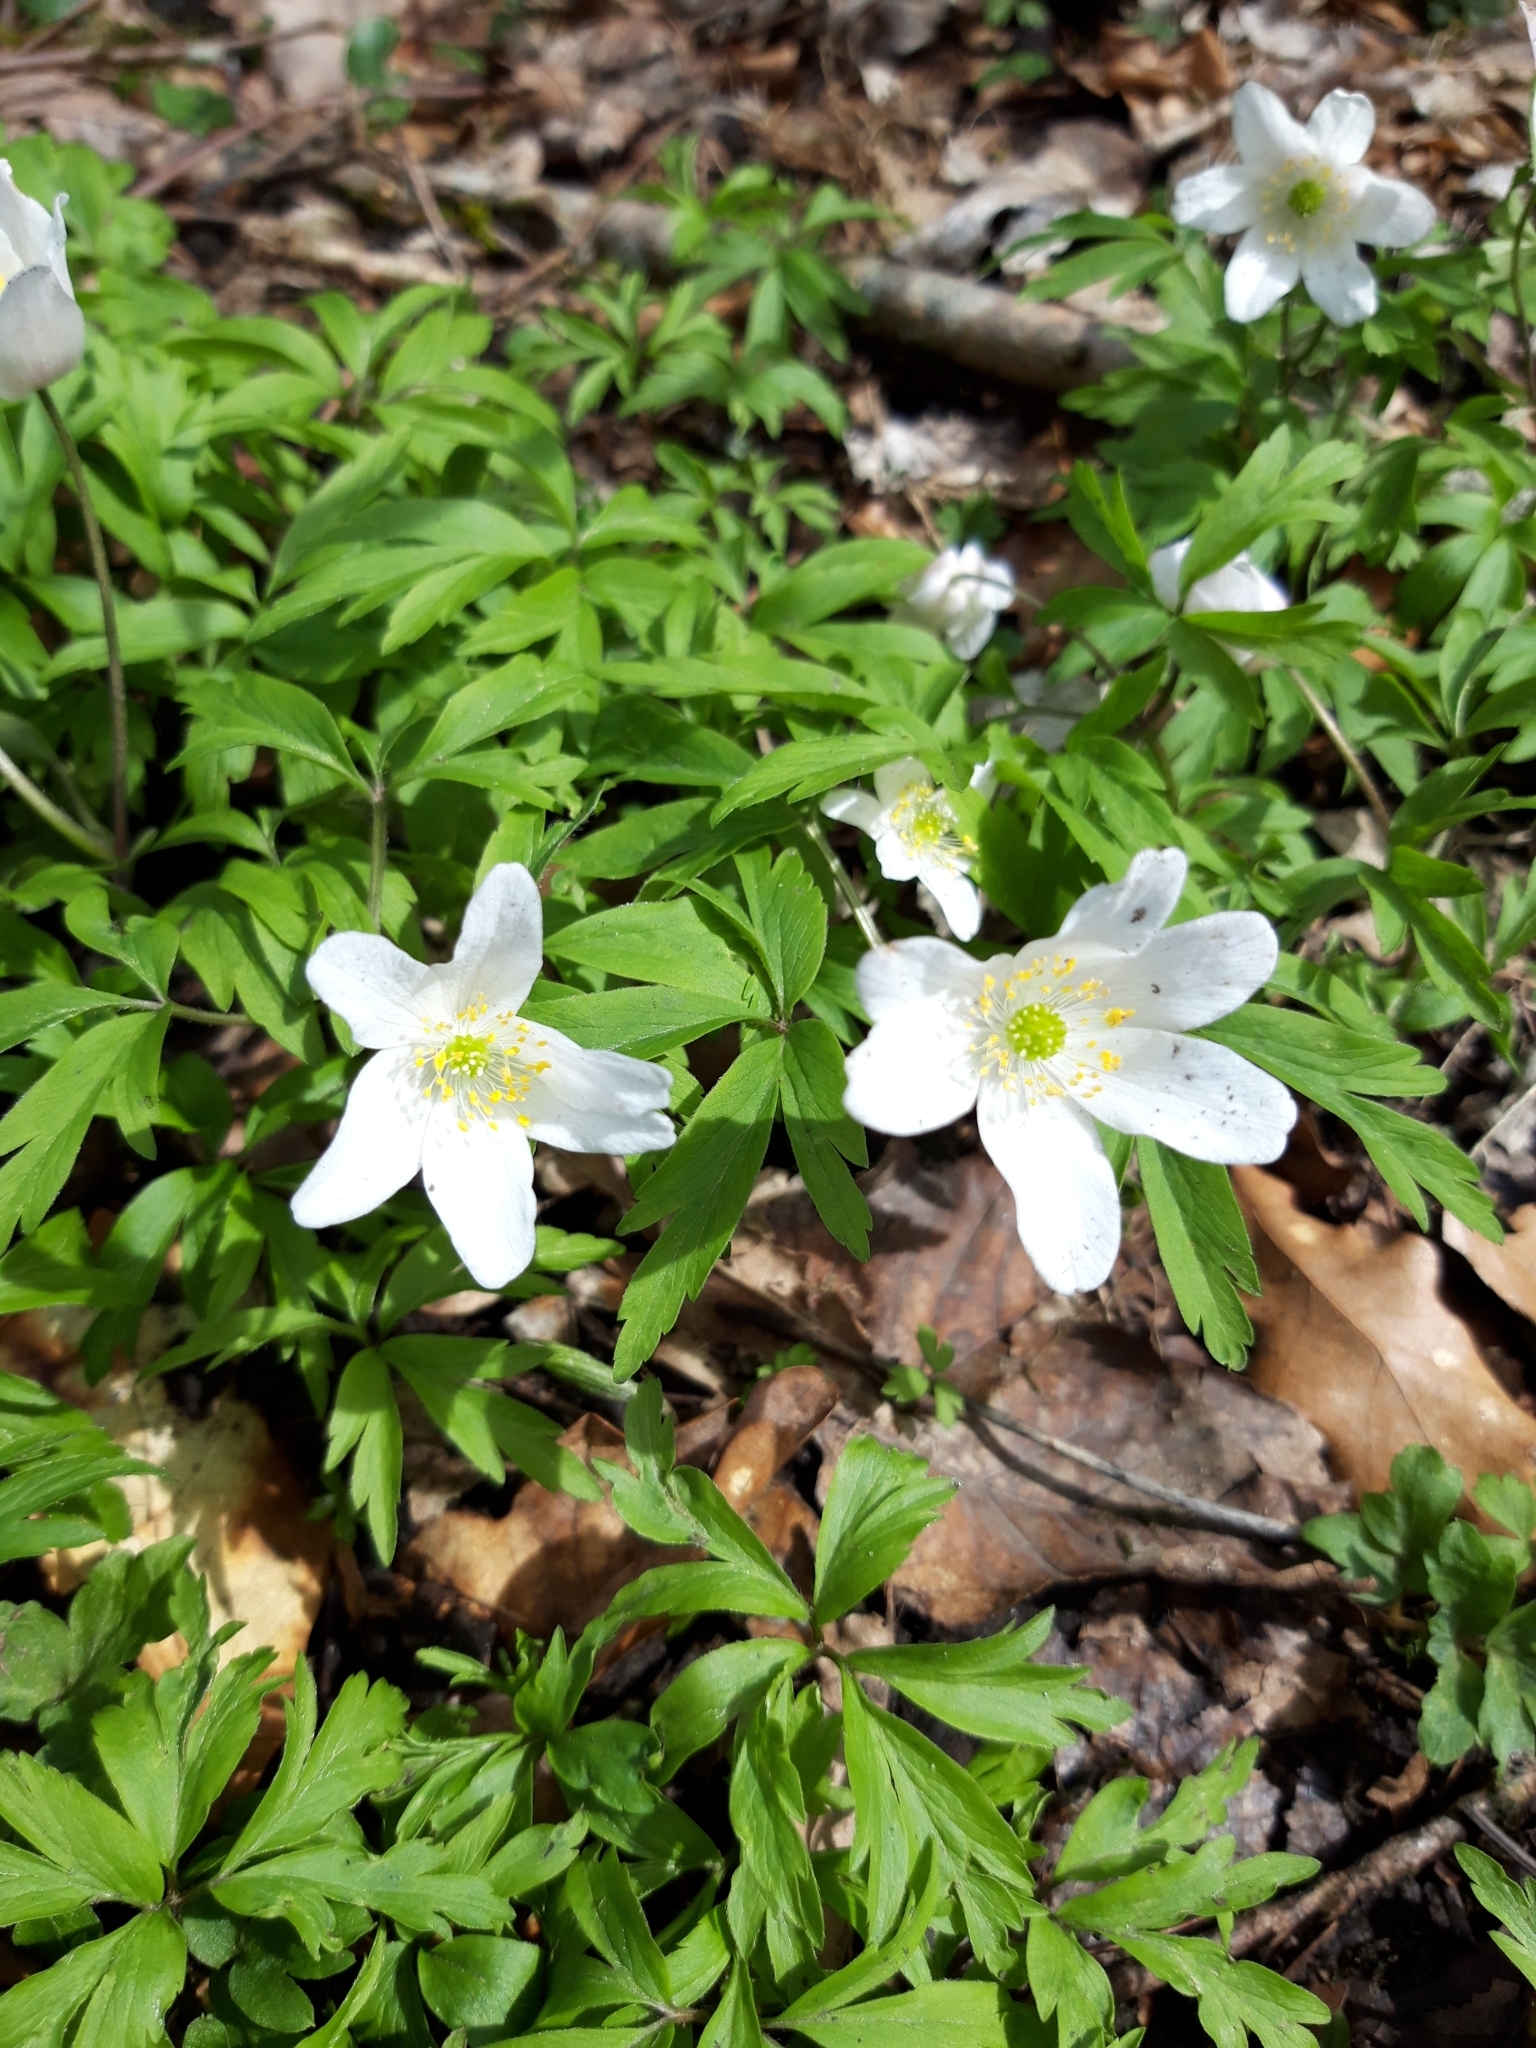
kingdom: Plantae
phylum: Tracheophyta
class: Magnoliopsida
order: Ranunculales
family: Ranunculaceae
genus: Anemone
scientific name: Anemone nemorosa
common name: Wood anemone
